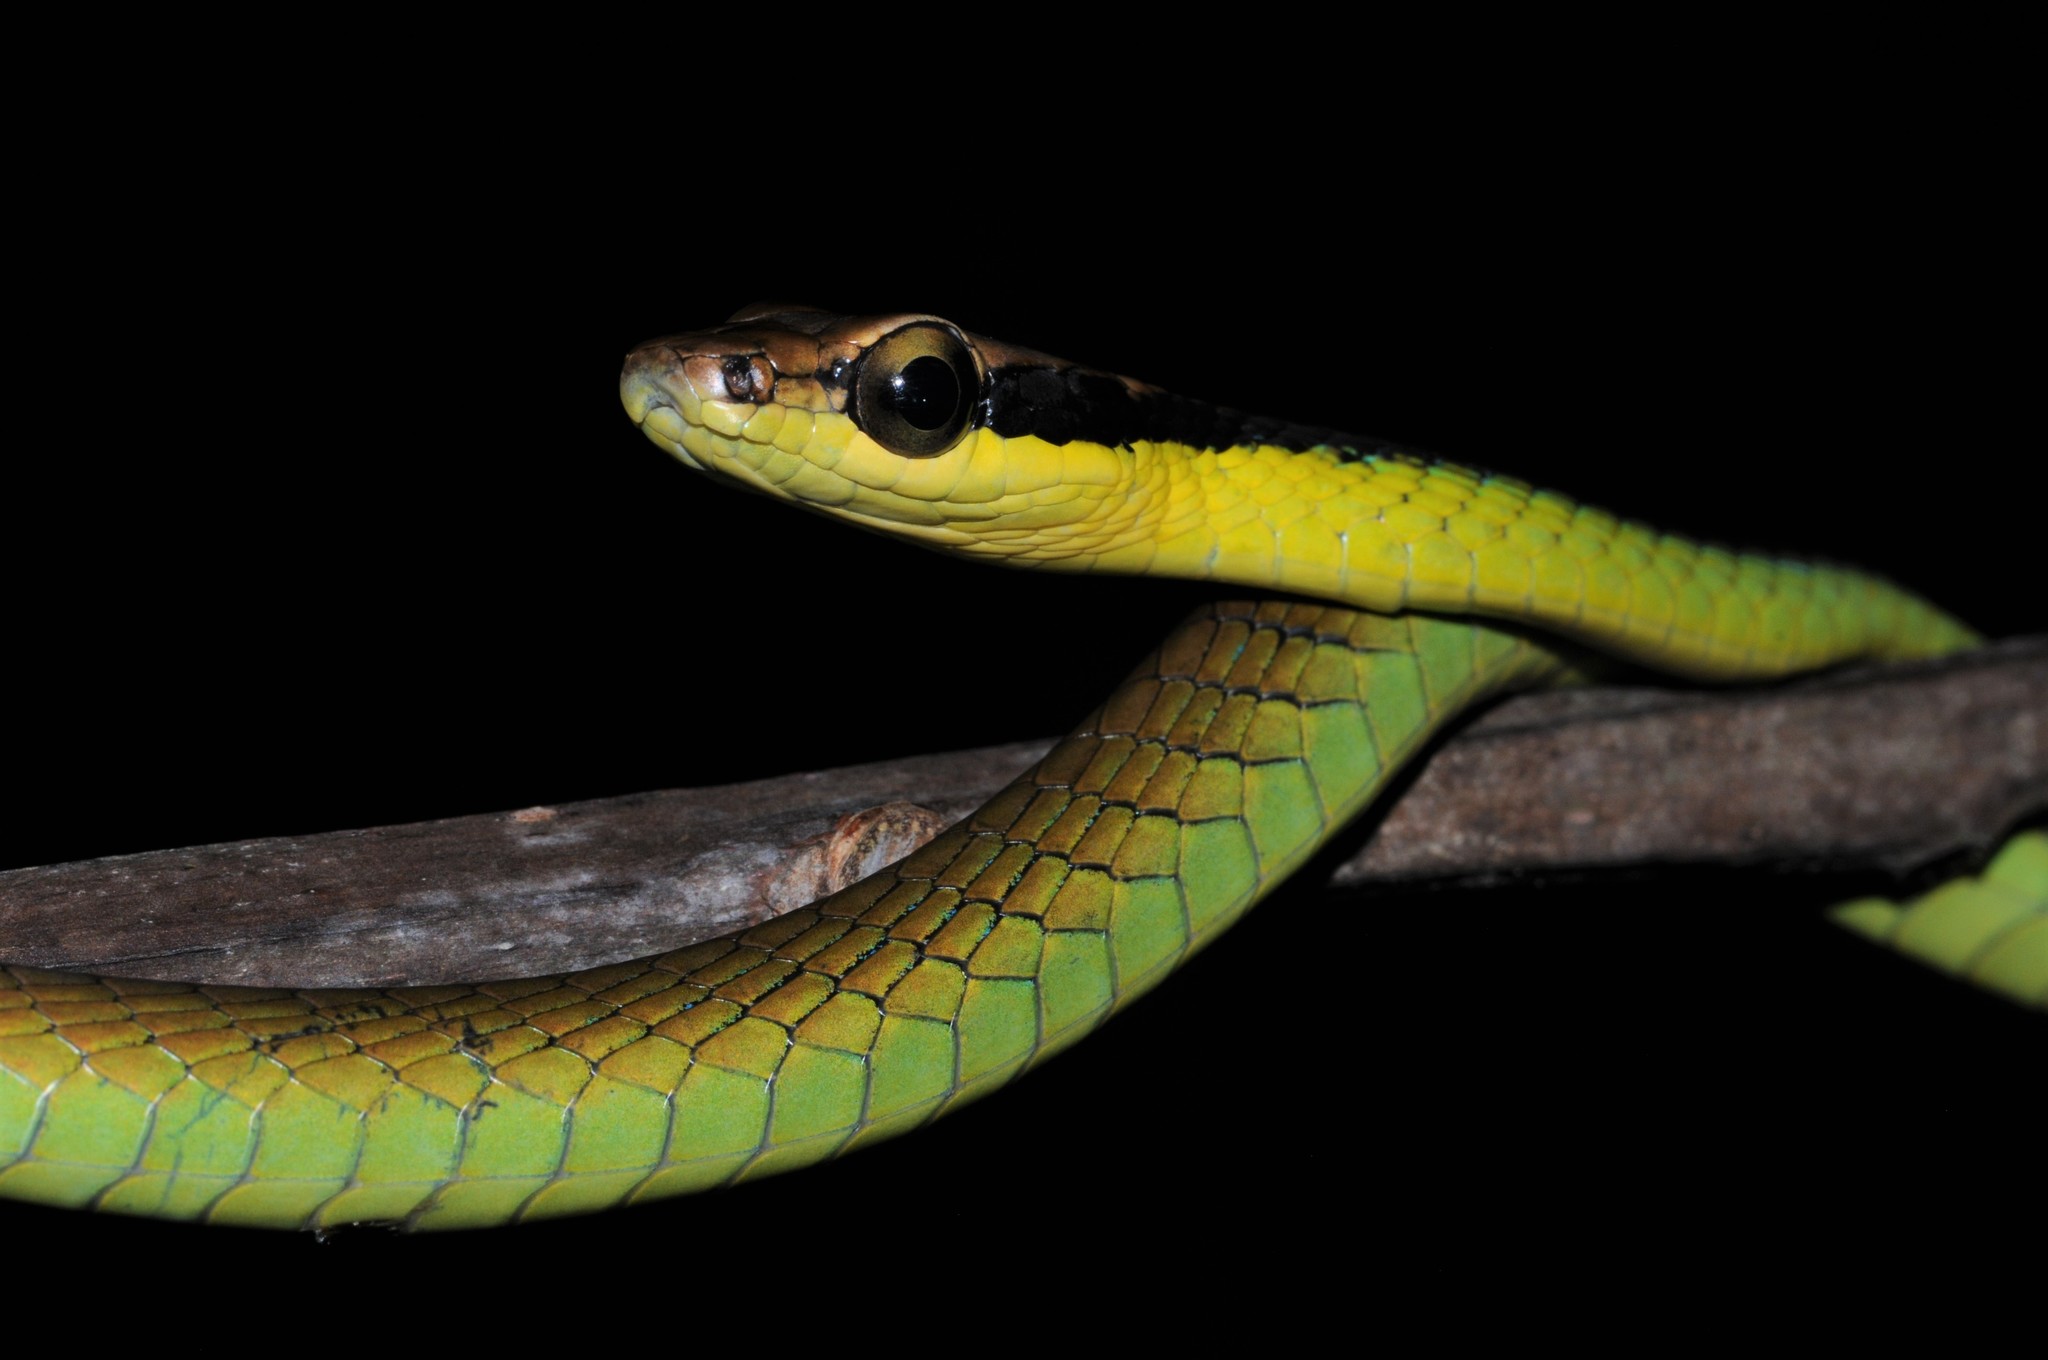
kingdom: Animalia
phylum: Chordata
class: Squamata
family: Colubridae
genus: Dendrelaphis
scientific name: Dendrelaphis cyanochloris
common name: Wall's bronzeback
